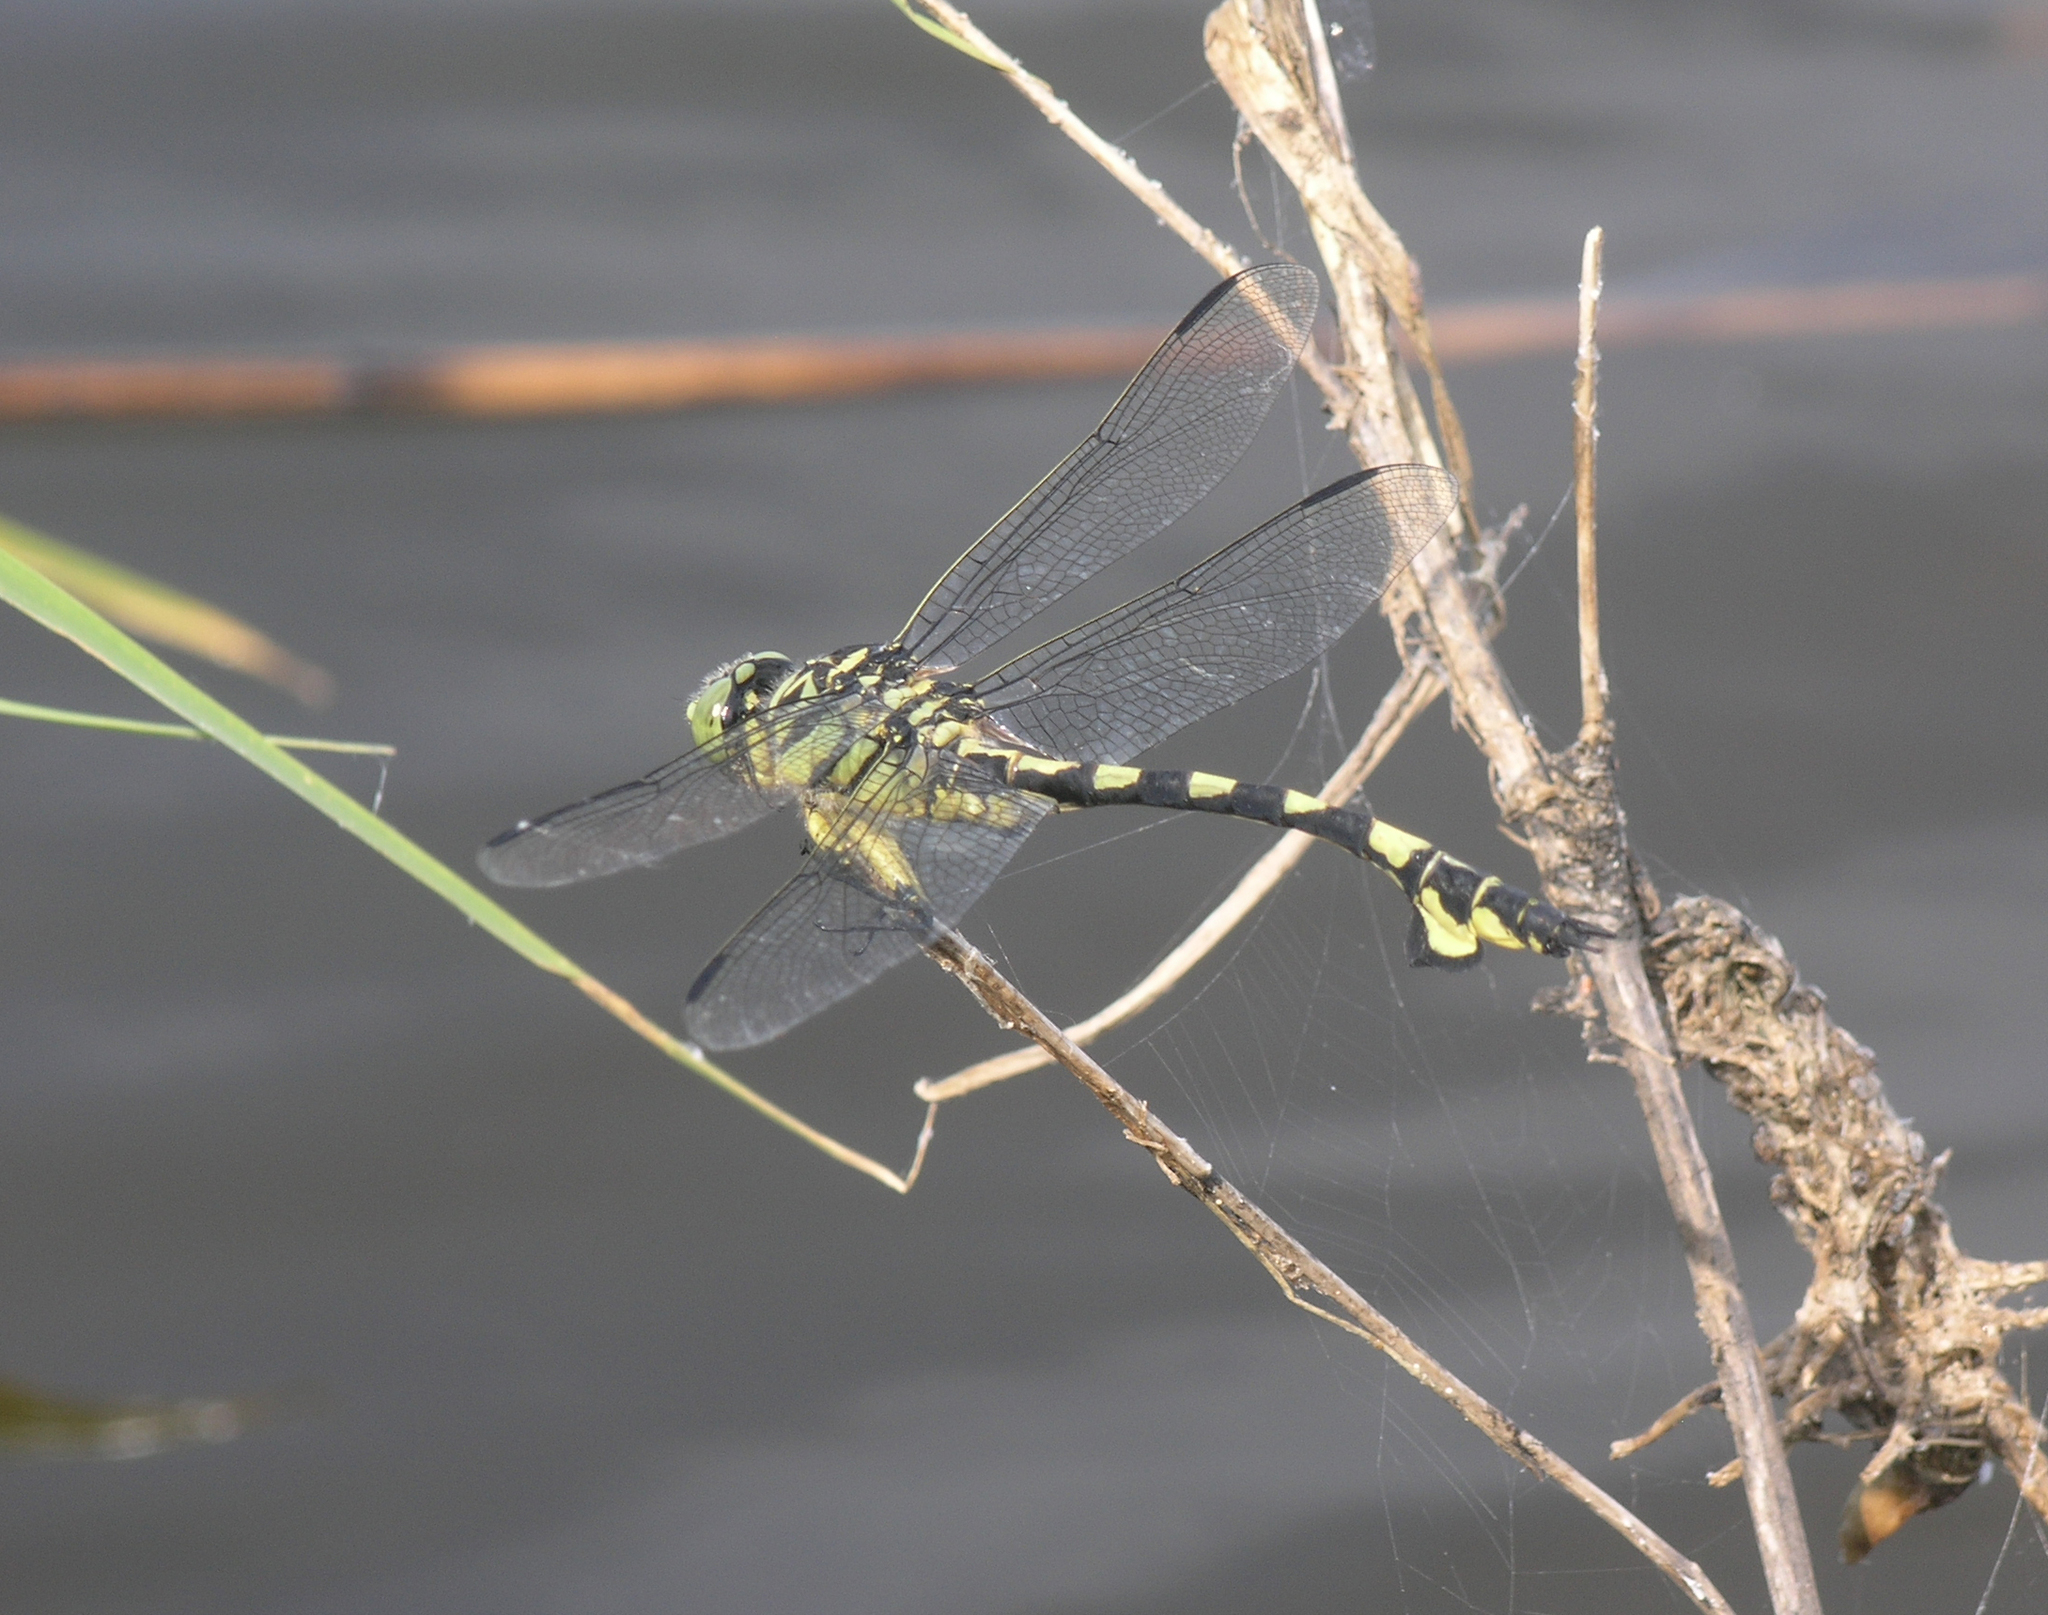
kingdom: Animalia
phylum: Arthropoda
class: Insecta
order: Odonata
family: Gomphidae
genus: Sinictinogomphus
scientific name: Sinictinogomphus clavatus
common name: Golden flangetail
